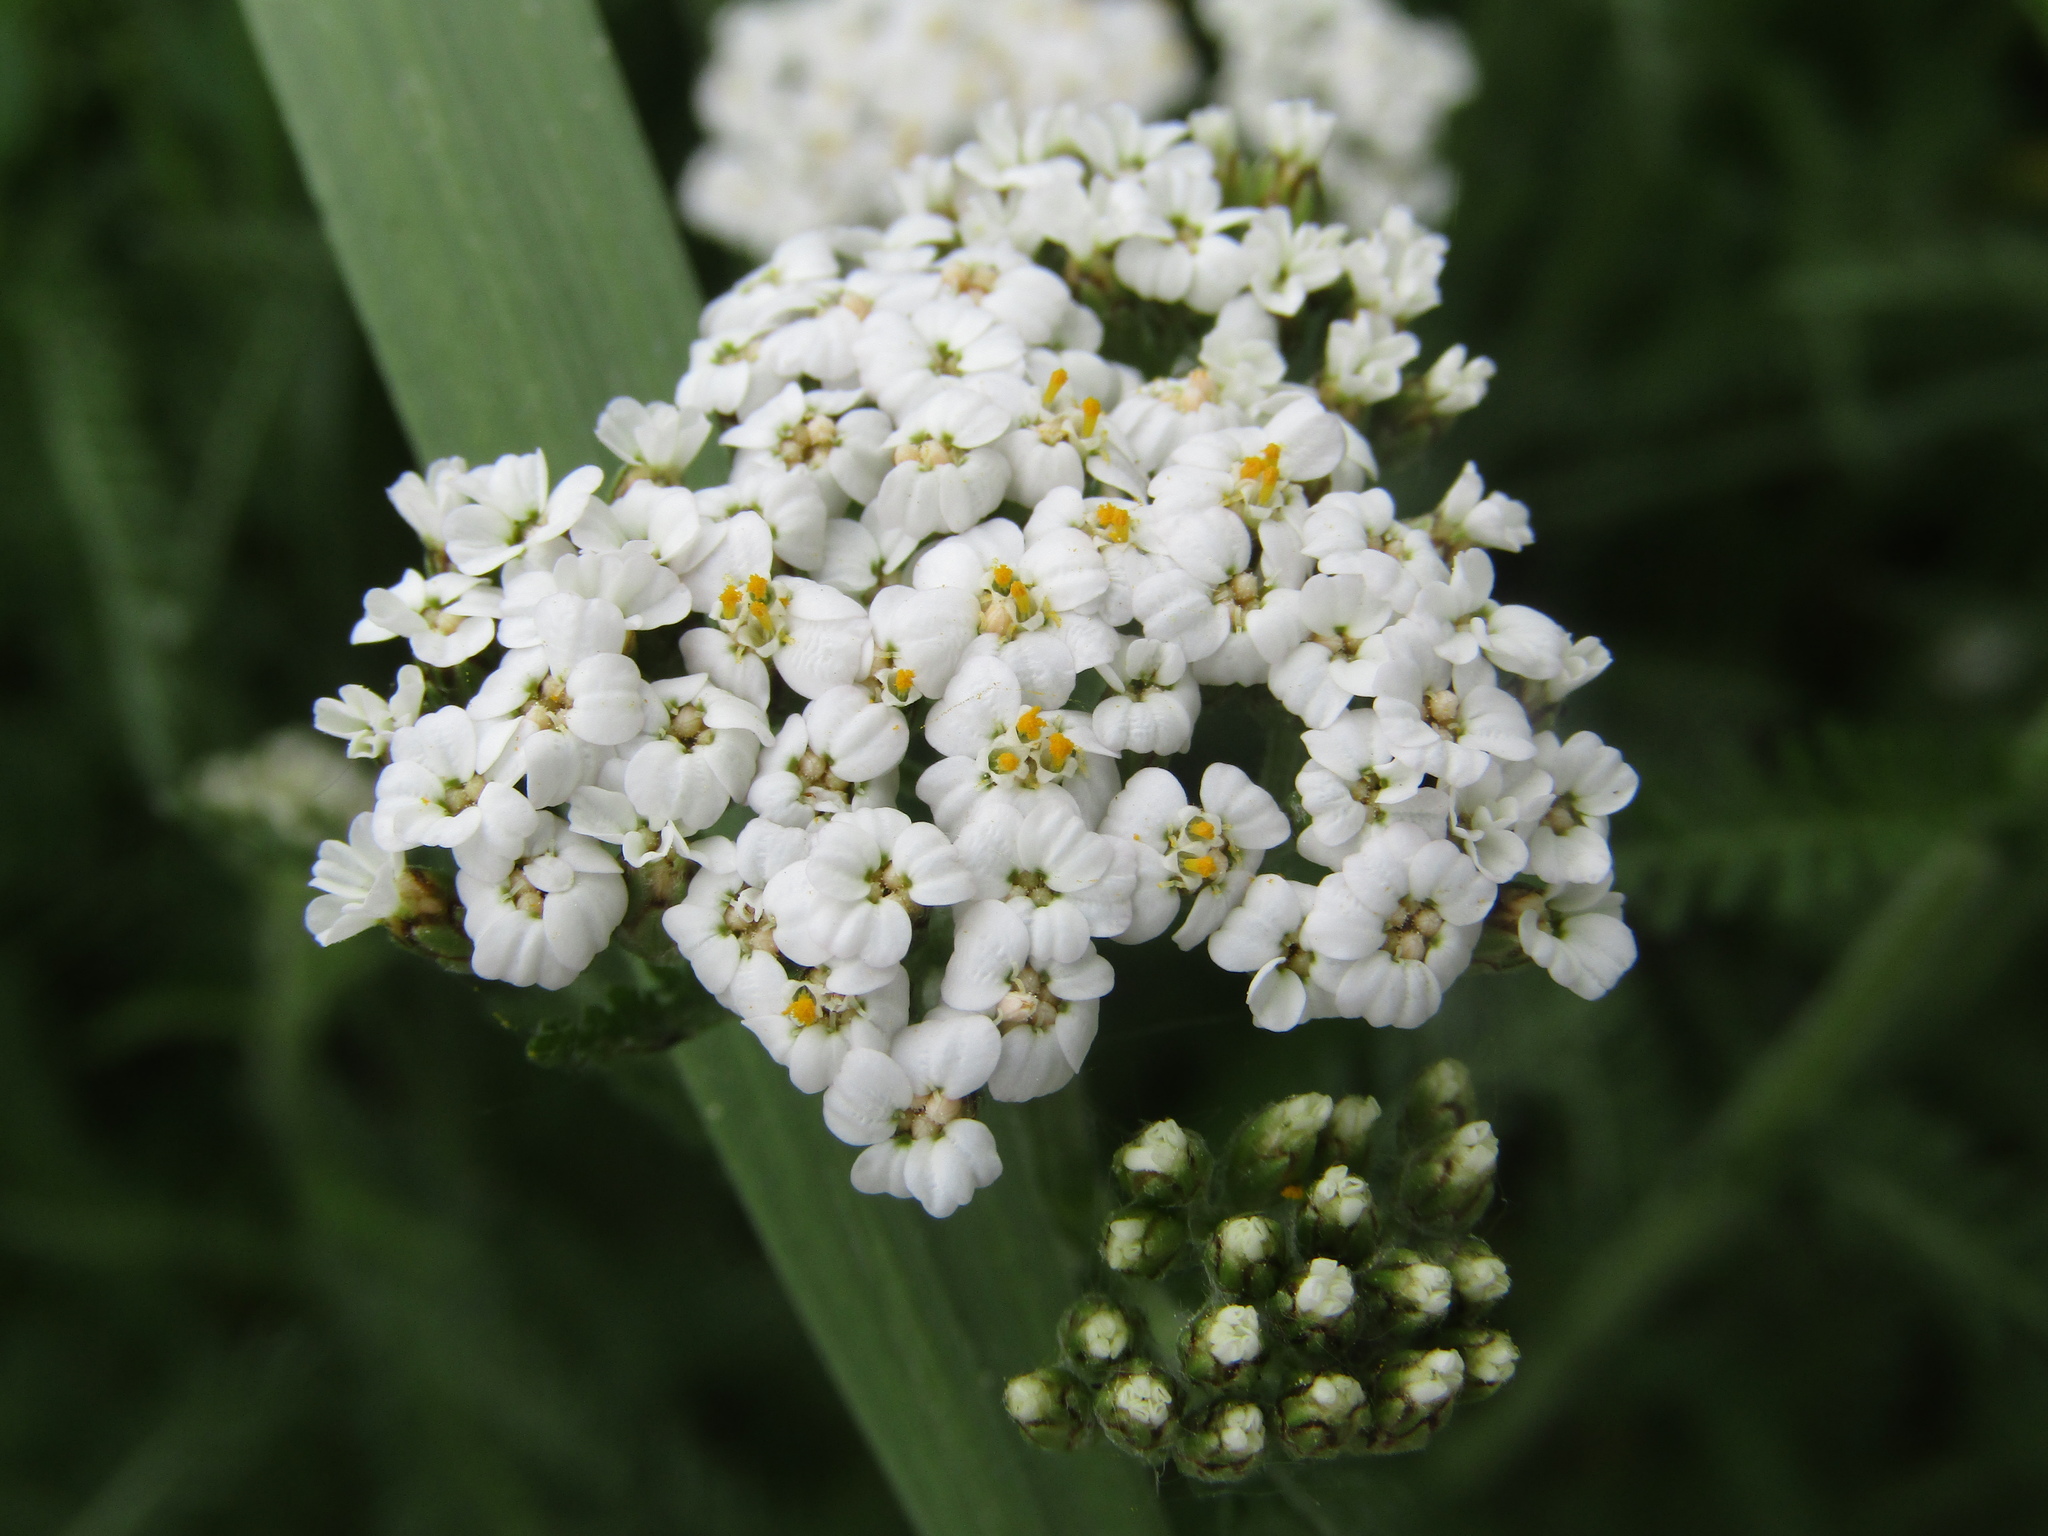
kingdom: Plantae
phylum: Tracheophyta
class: Magnoliopsida
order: Asterales
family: Asteraceae
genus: Achillea
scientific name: Achillea millefolium
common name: Yarrow
